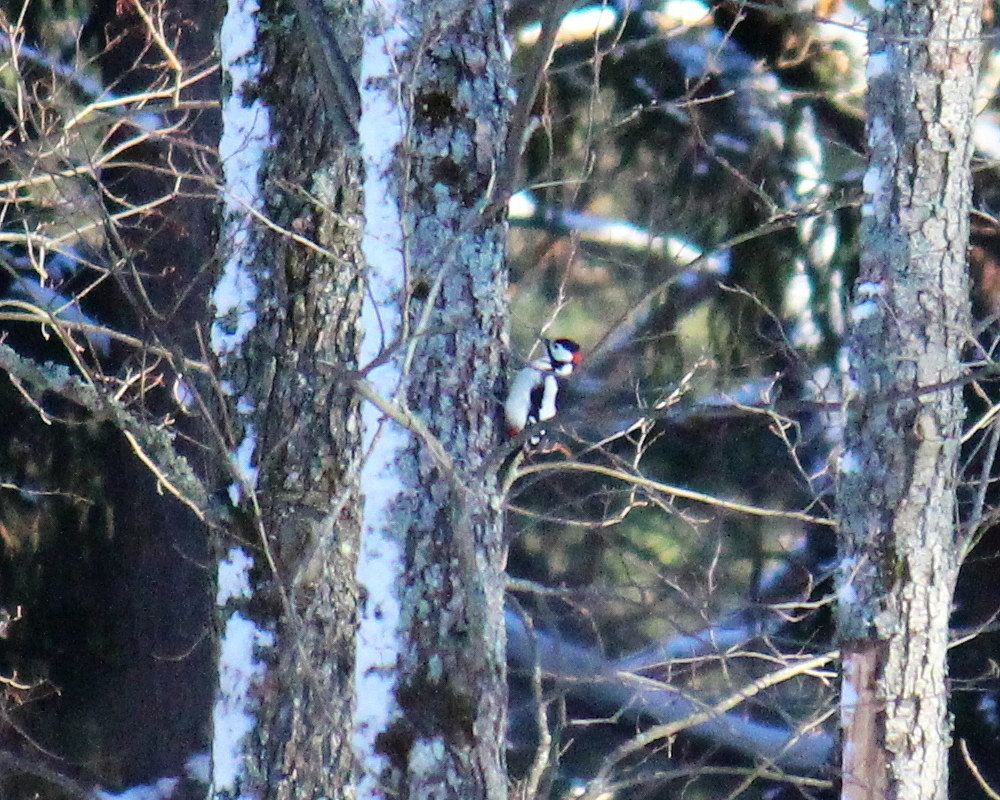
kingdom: Animalia
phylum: Chordata
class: Aves
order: Piciformes
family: Picidae
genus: Dendrocopos
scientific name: Dendrocopos major
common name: Great spotted woodpecker
